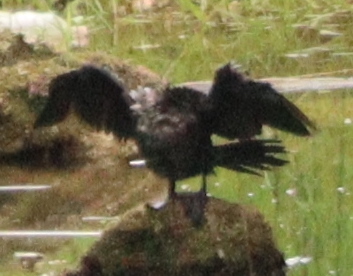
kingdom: Animalia
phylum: Chordata
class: Aves
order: Suliformes
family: Phalacrocoracidae
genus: Microcarbo
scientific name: Microcarbo pygmaeus
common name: Pygmy cormorant
